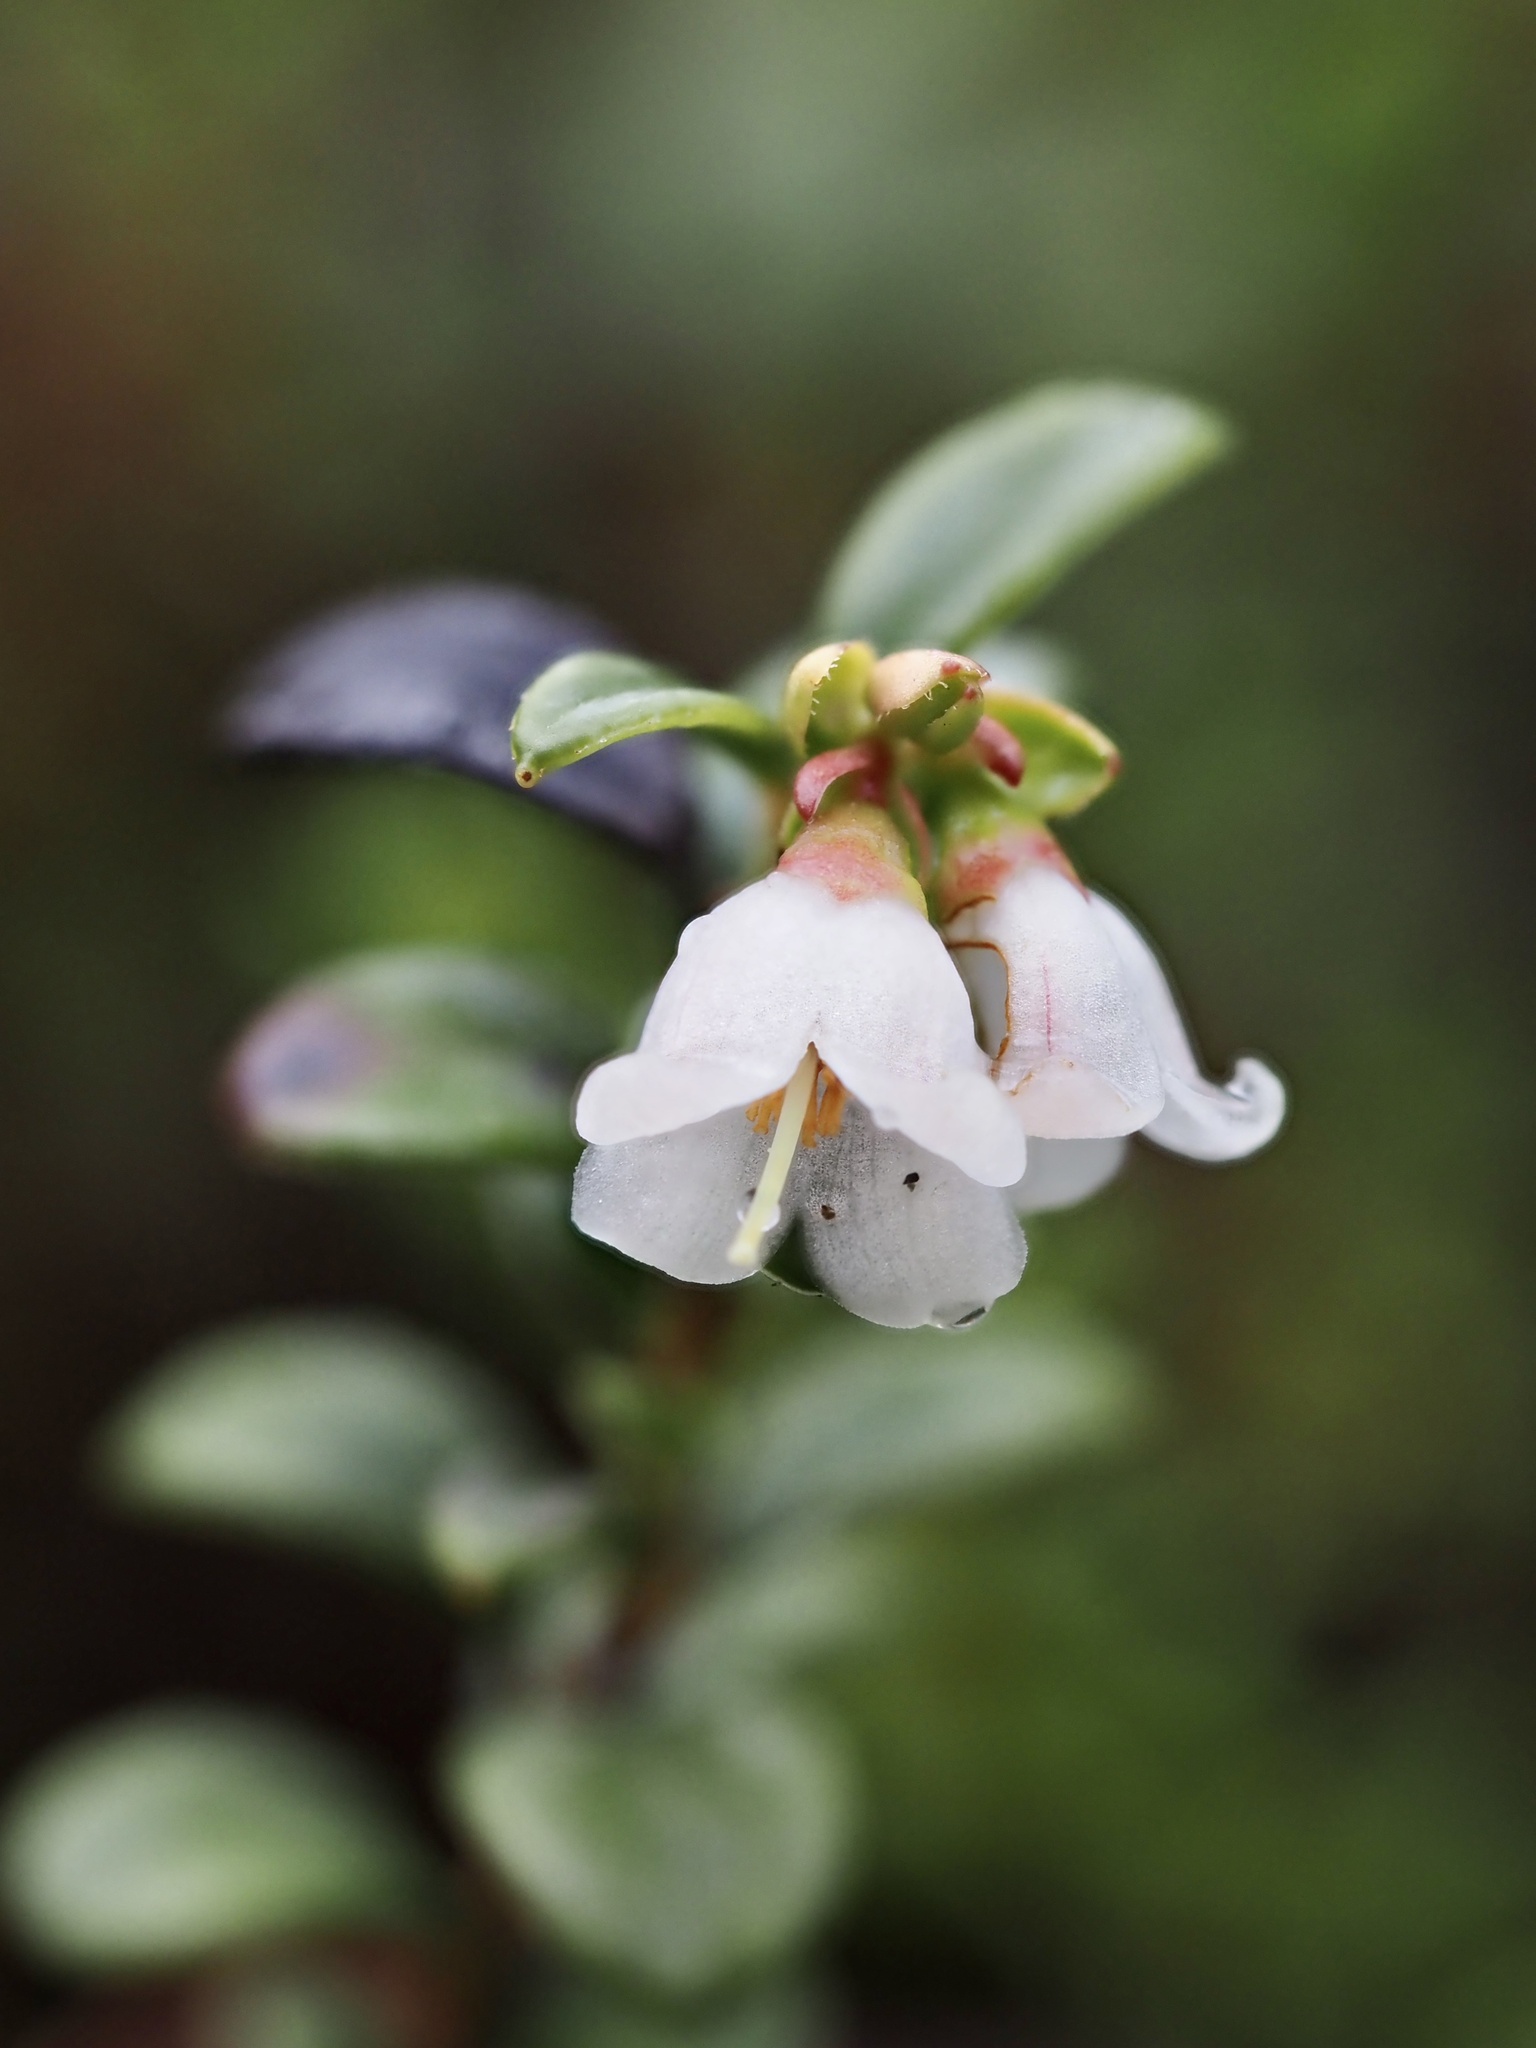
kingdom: Plantae
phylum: Tracheophyta
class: Magnoliopsida
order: Ericales
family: Ericaceae
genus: Vaccinium
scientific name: Vaccinium vitis-idaea
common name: Cowberry
